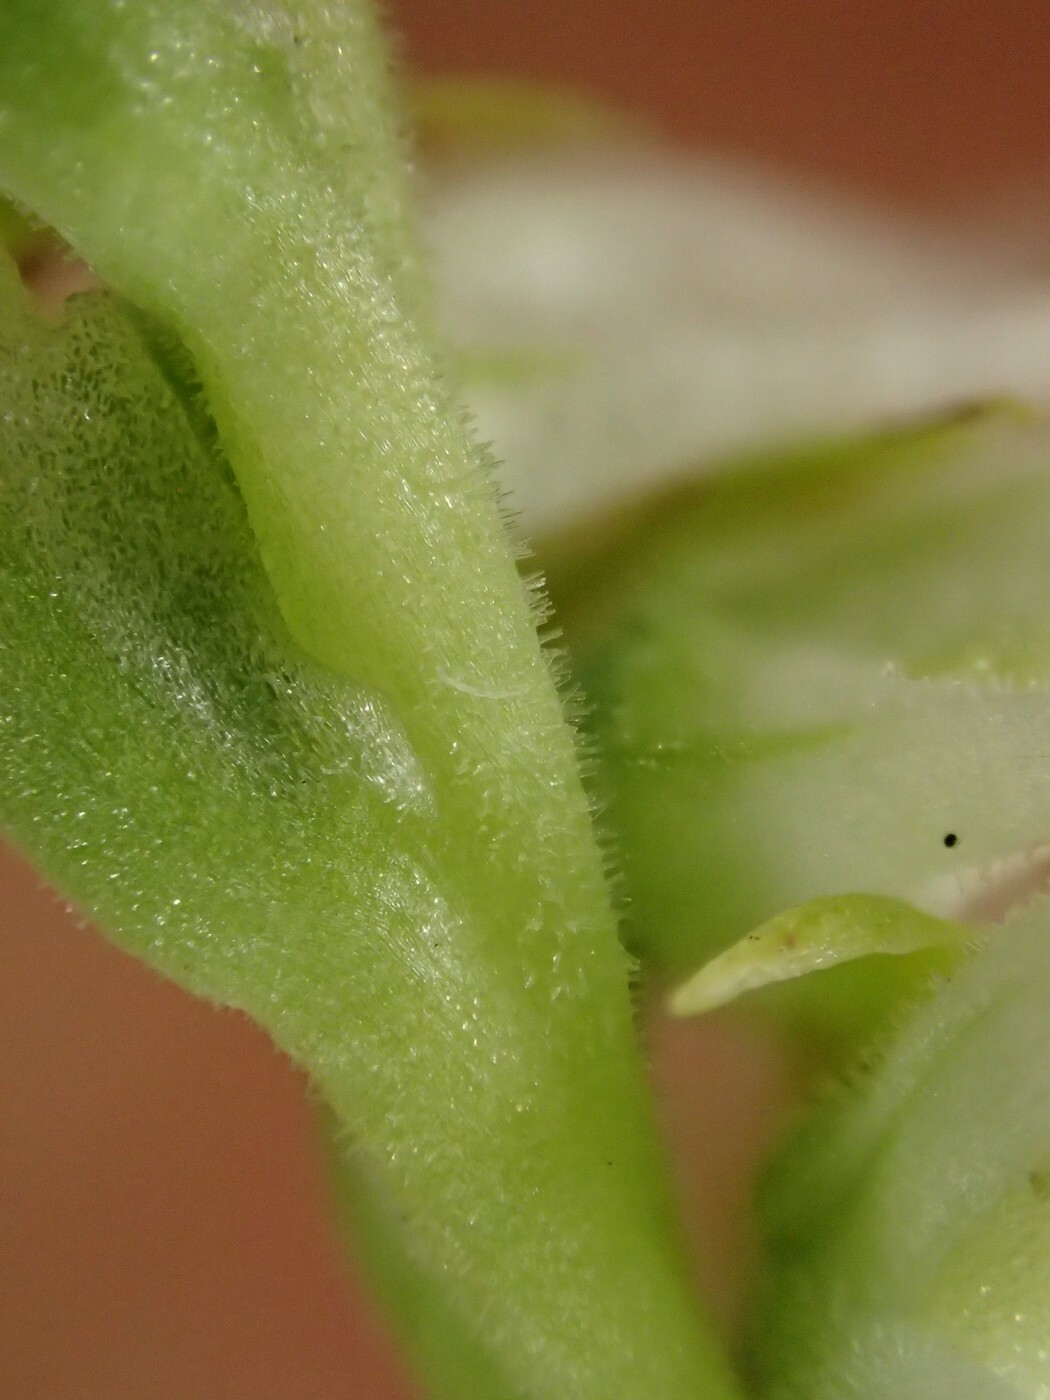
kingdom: Plantae
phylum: Tracheophyta
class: Liliopsida
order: Asparagales
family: Orchidaceae
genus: Spiranthes
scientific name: Spiranthes vernalis
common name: Spring ladies'-tresses
